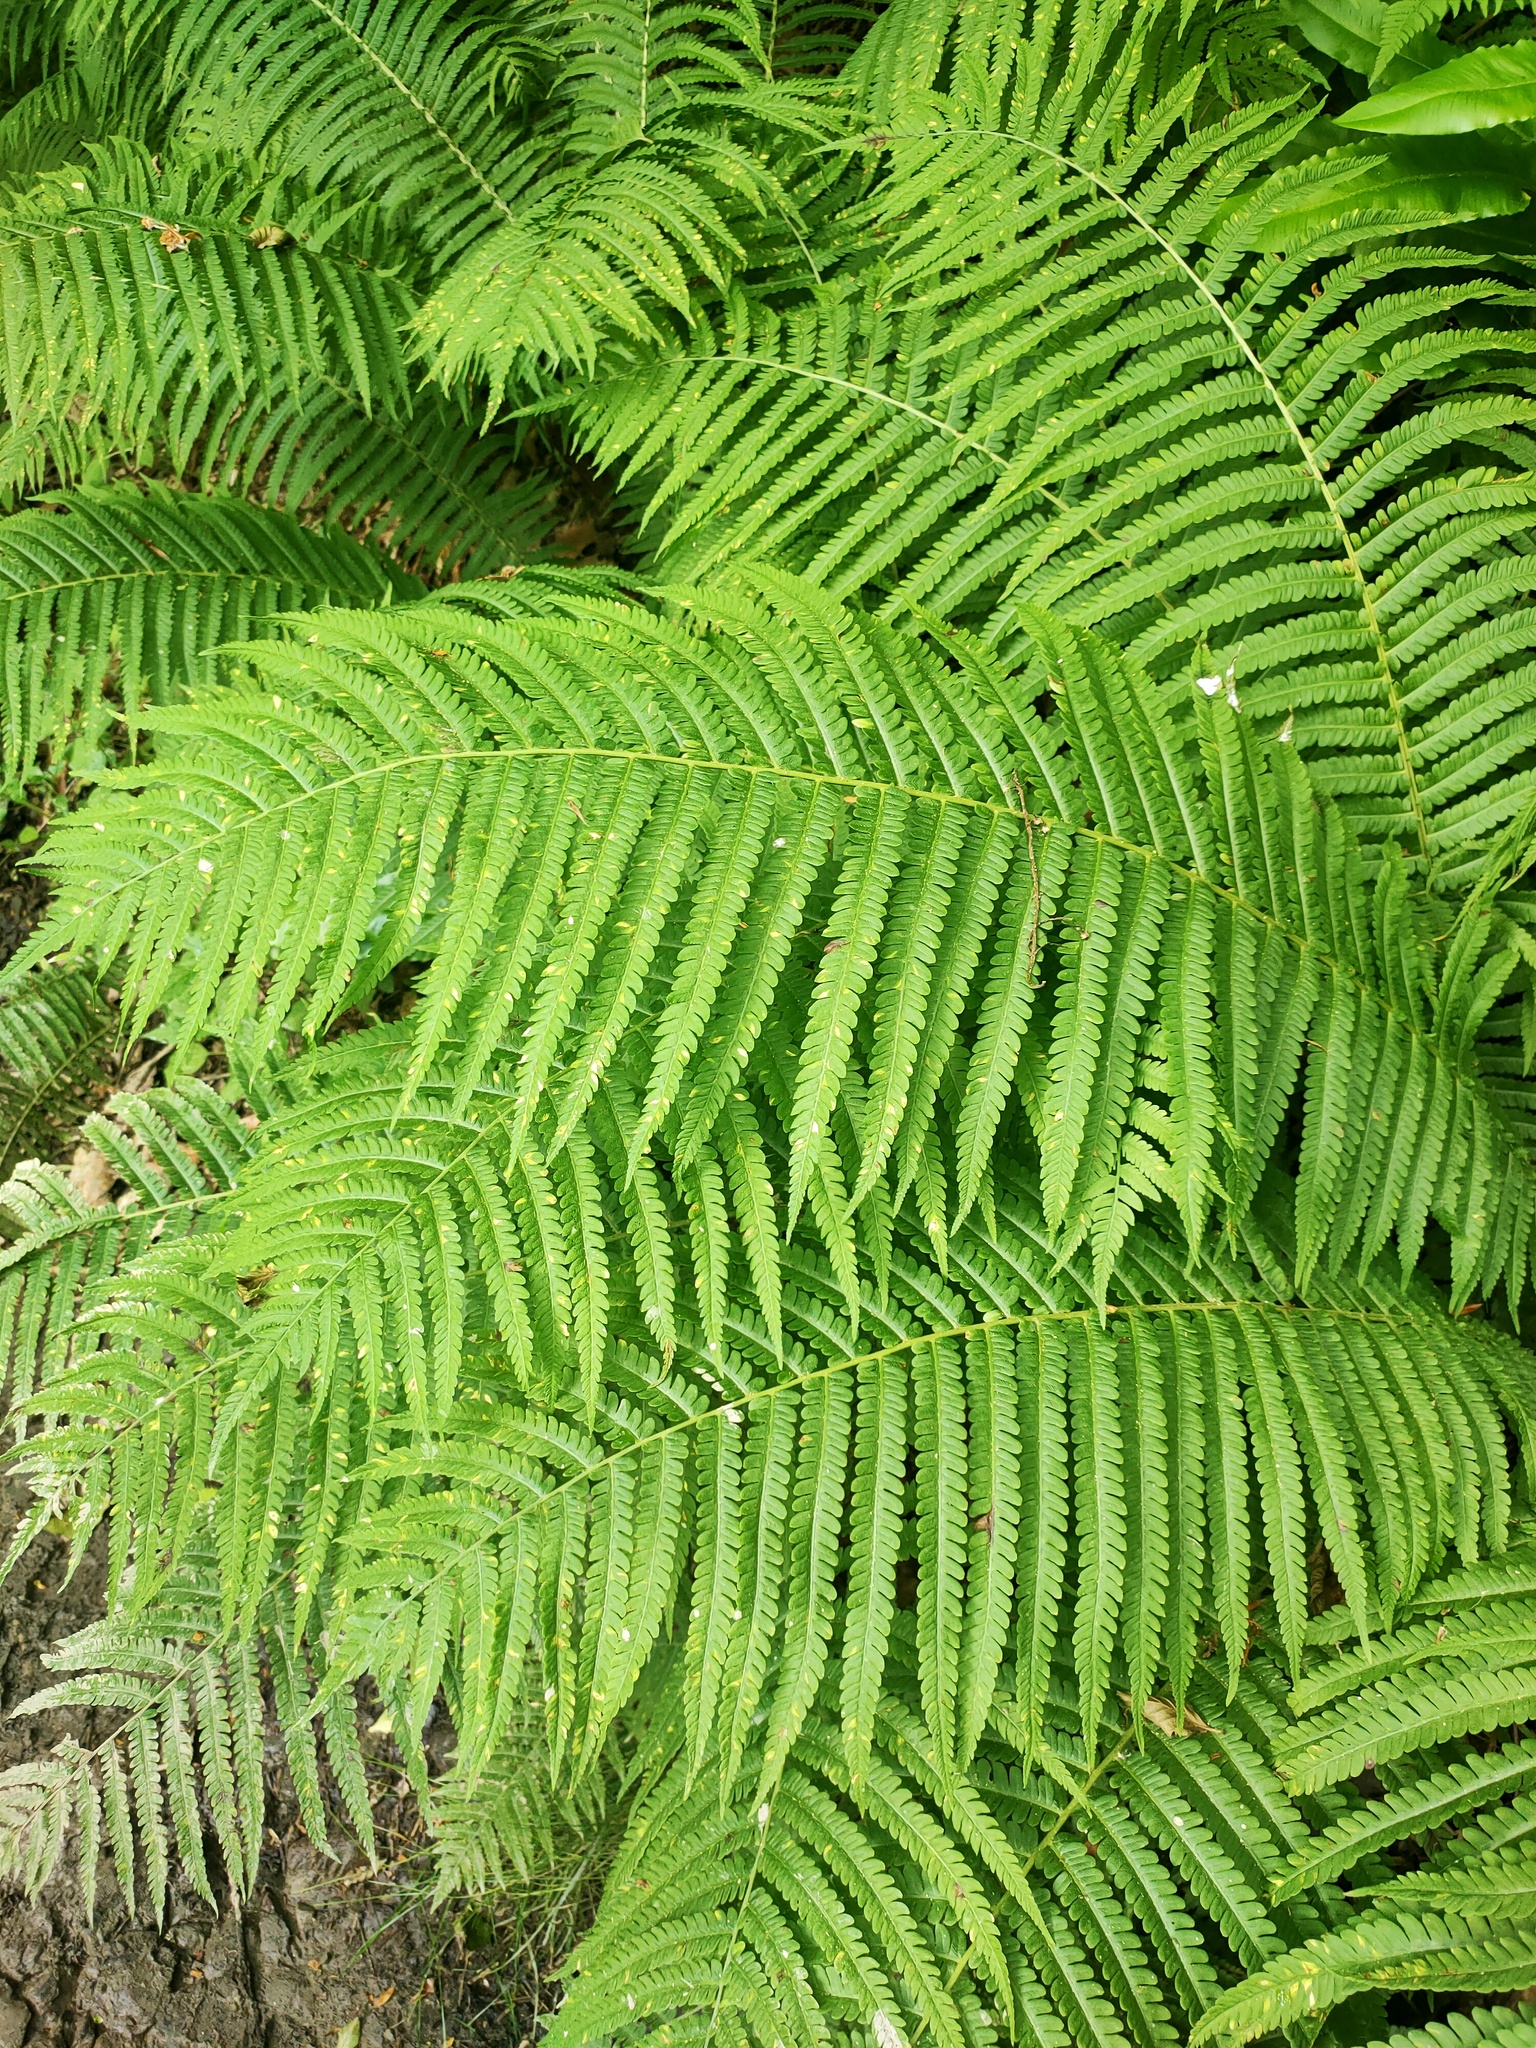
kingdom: Plantae
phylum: Tracheophyta
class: Polypodiopsida
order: Polypodiales
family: Onocleaceae
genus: Matteuccia
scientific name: Matteuccia struthiopteris
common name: Ostrich fern
